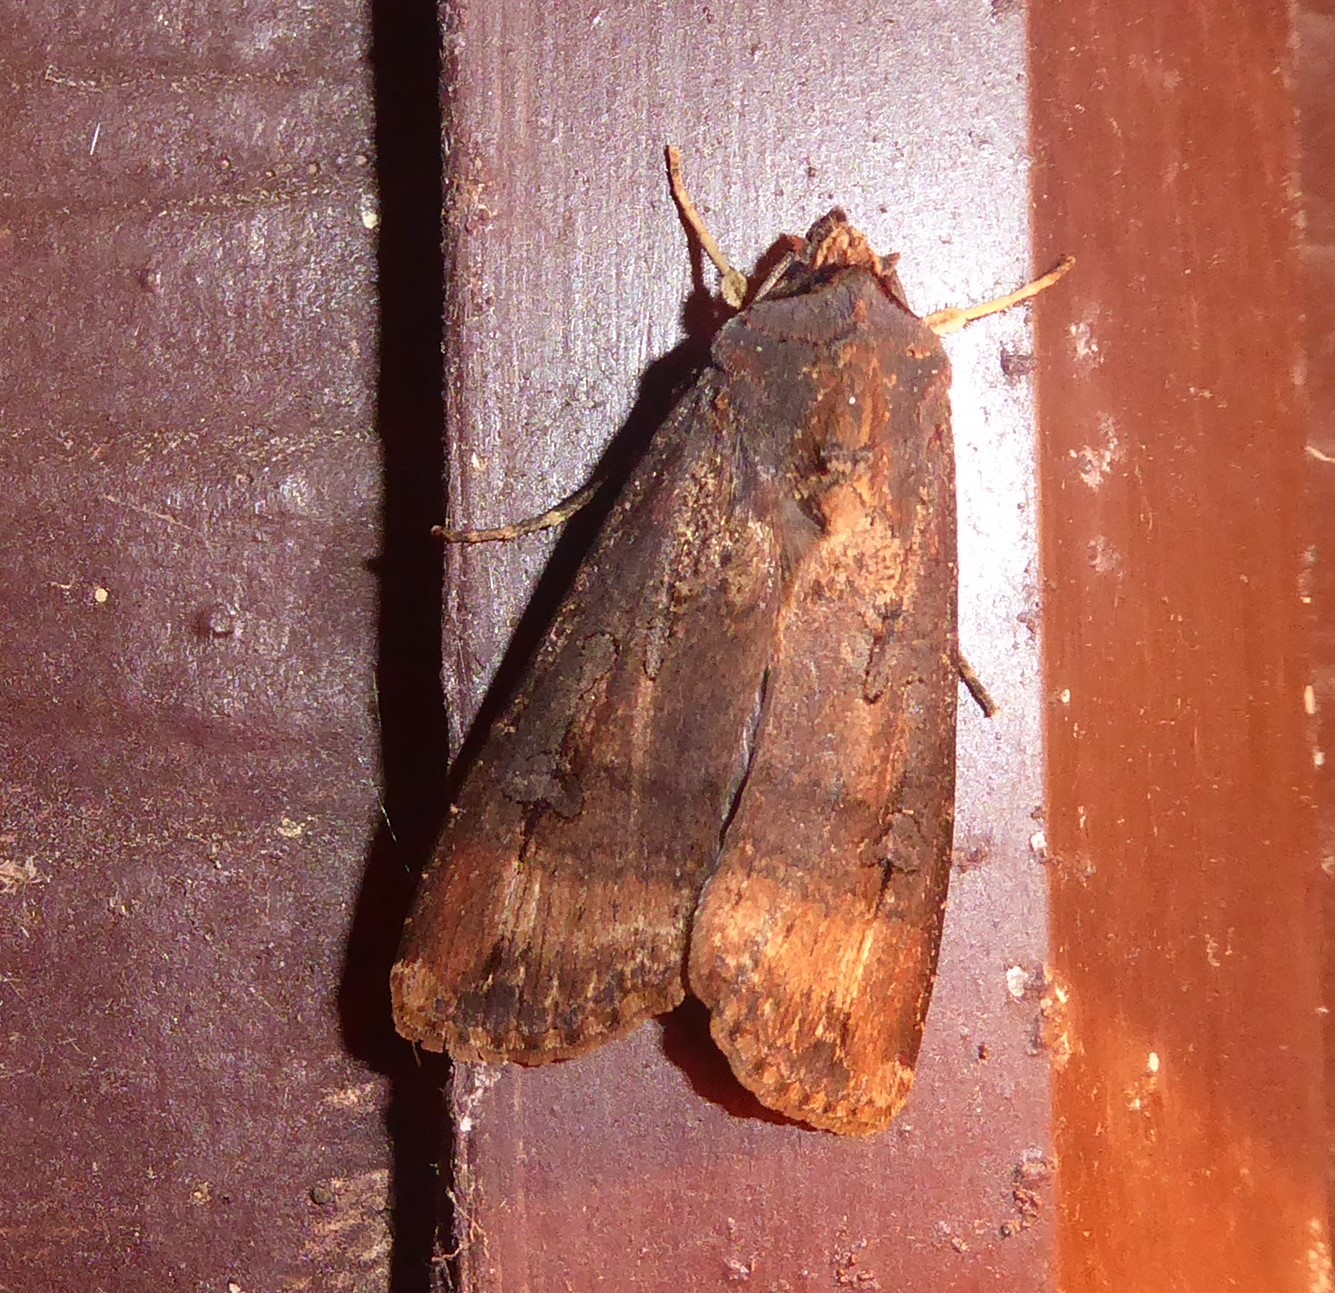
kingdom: Animalia
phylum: Arthropoda
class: Insecta
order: Lepidoptera
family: Noctuidae
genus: Agrotis
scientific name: Agrotis ipsilon
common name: Dark sword-grass
